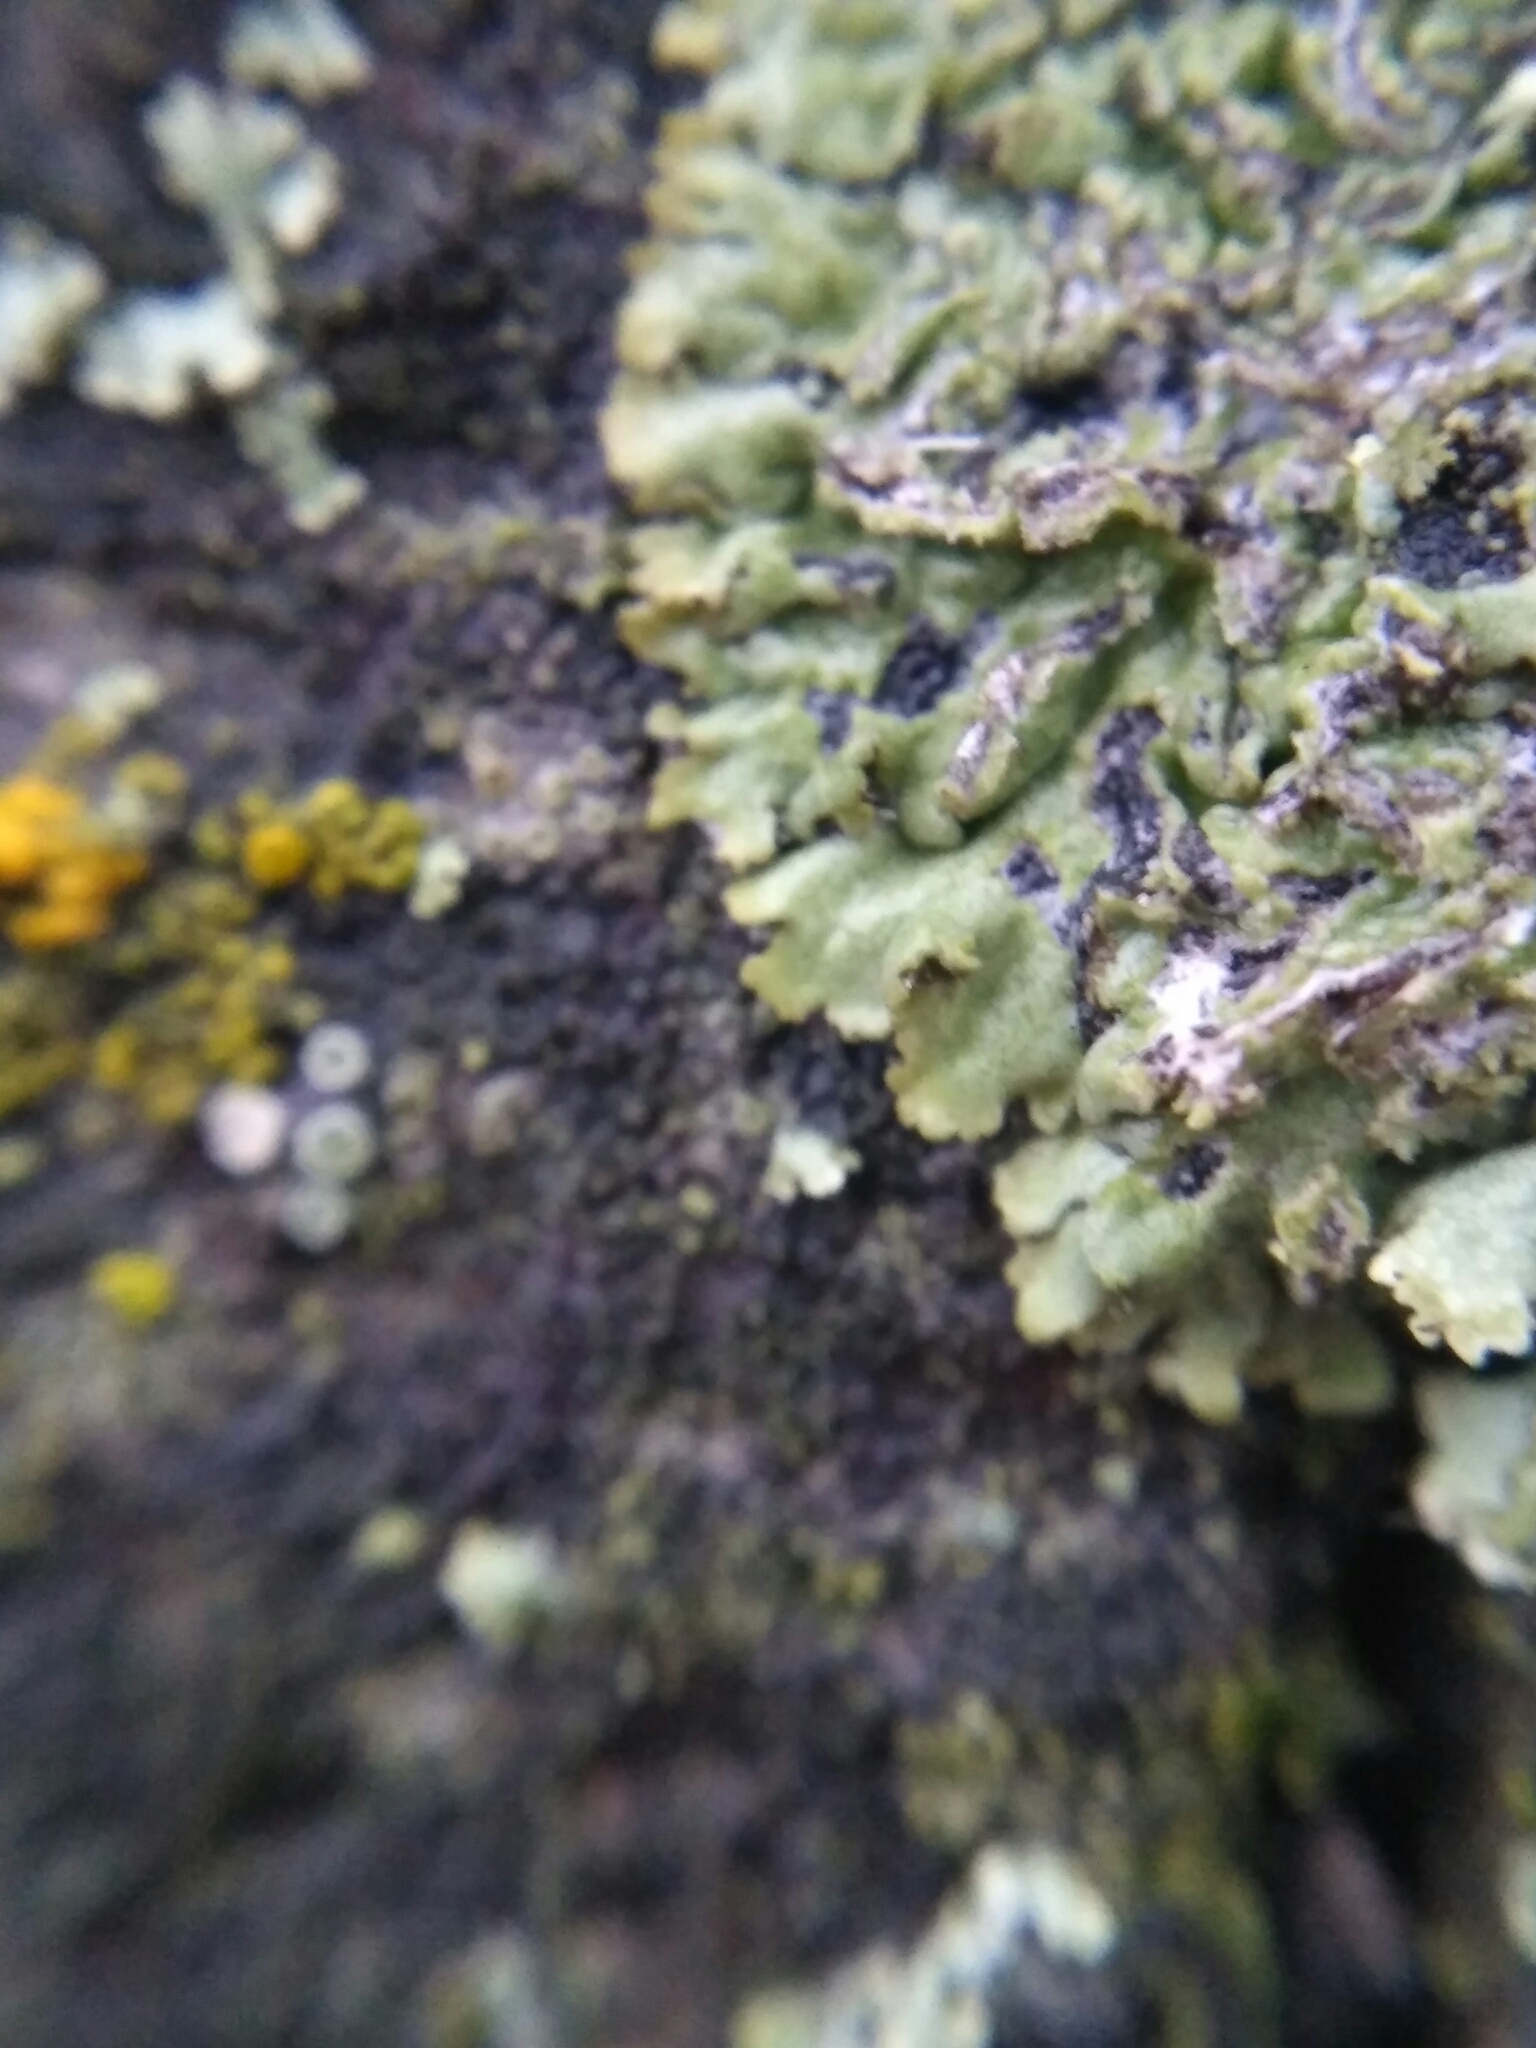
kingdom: Fungi
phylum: Ascomycota
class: Lecanoromycetes
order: Caliciales
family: Physciaceae
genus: Phaeophyscia
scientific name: Phaeophyscia orbicularis
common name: Mealy shadow lichen
